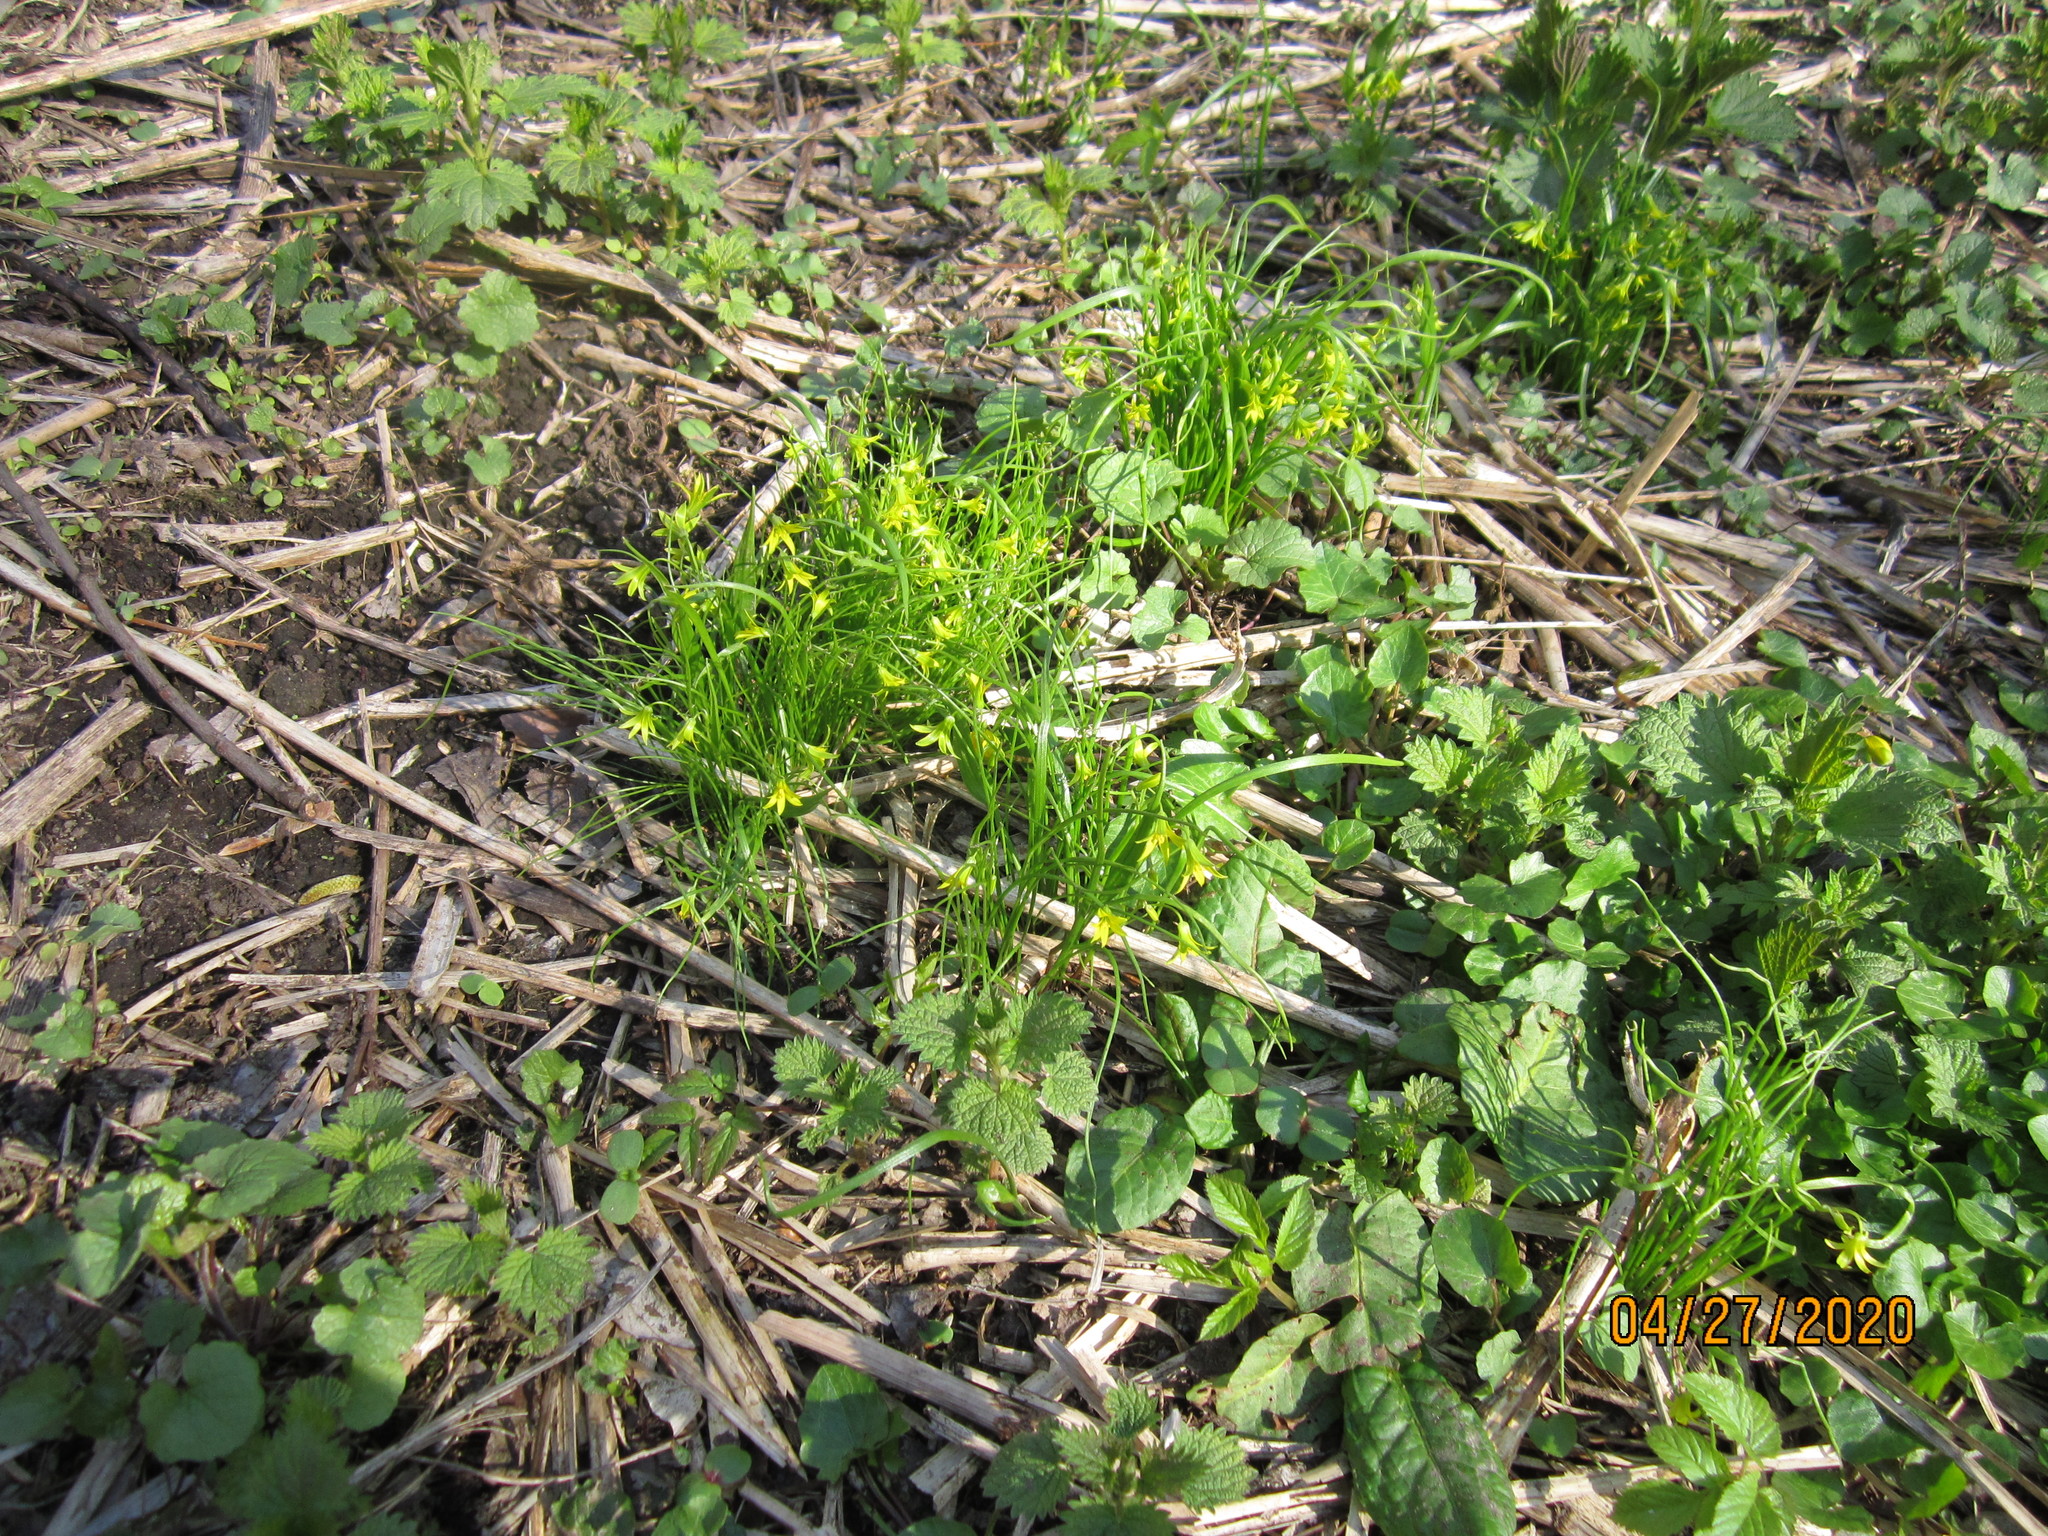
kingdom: Plantae
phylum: Tracheophyta
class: Liliopsida
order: Liliales
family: Liliaceae
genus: Gagea
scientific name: Gagea minima
